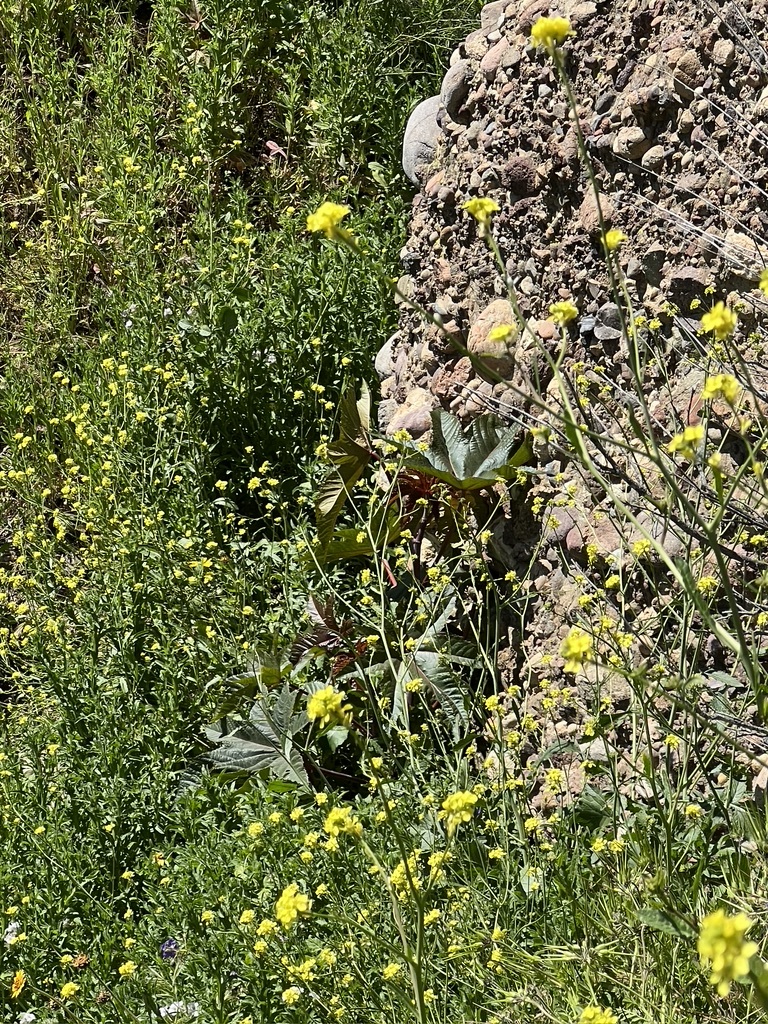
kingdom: Plantae
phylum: Tracheophyta
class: Magnoliopsida
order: Malpighiales
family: Euphorbiaceae
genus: Ricinus
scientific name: Ricinus communis
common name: Castor-oil-plant
